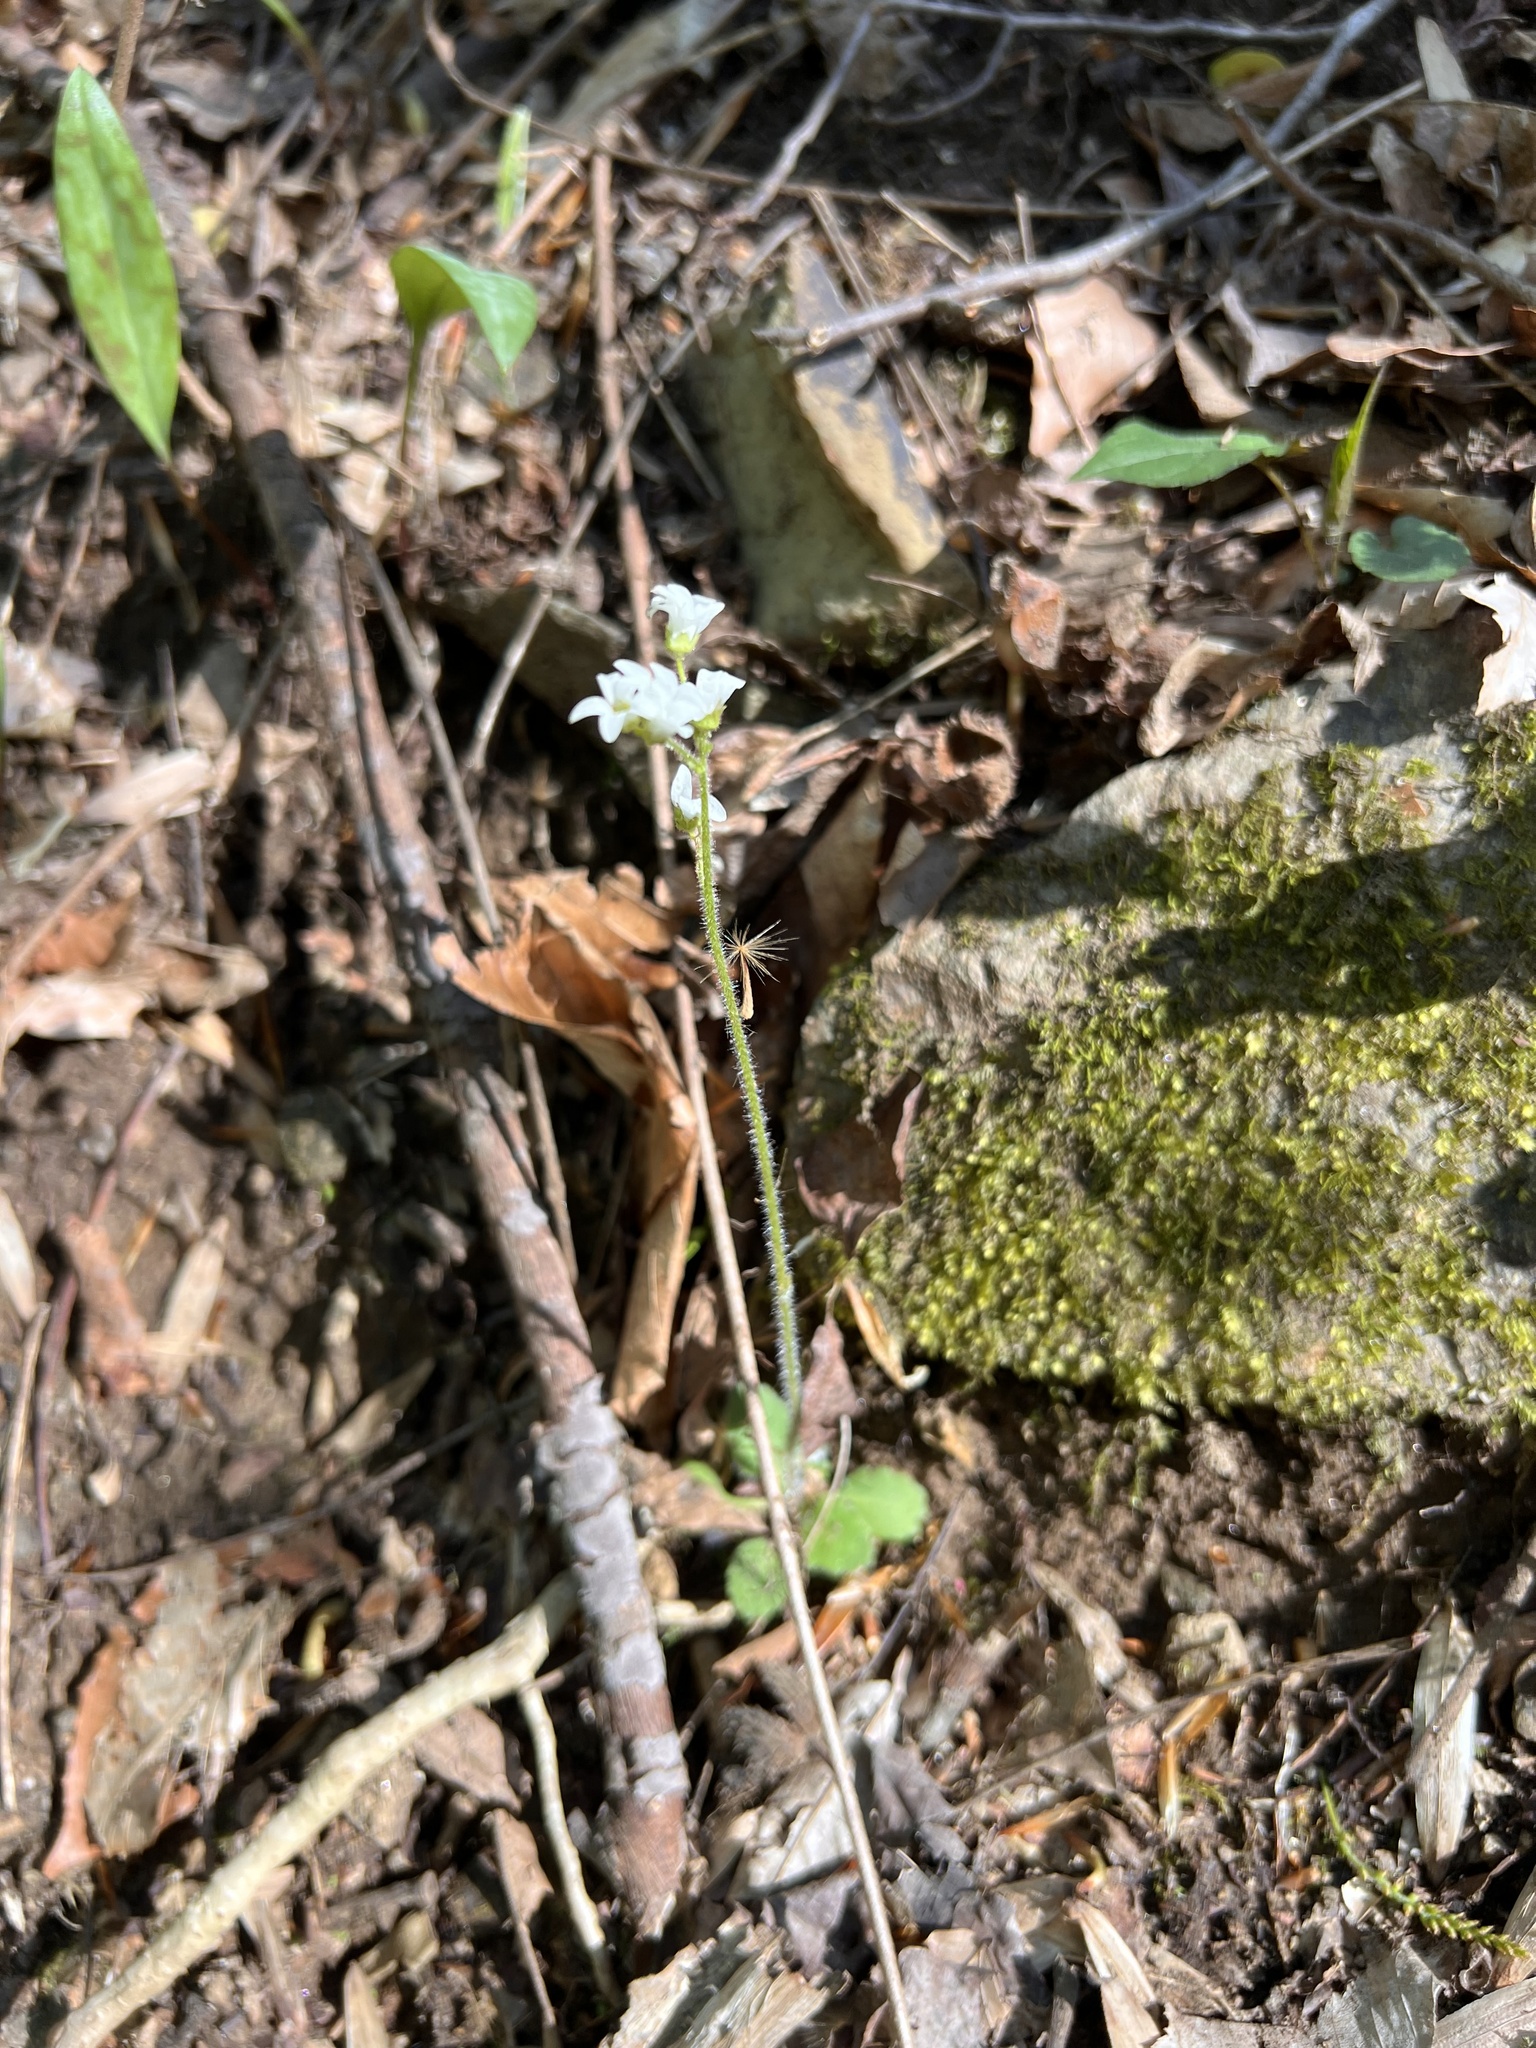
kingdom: Plantae
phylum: Tracheophyta
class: Magnoliopsida
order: Saxifragales
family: Saxifragaceae
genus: Micranthes
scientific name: Micranthes virginiensis
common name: Early saxifrage
